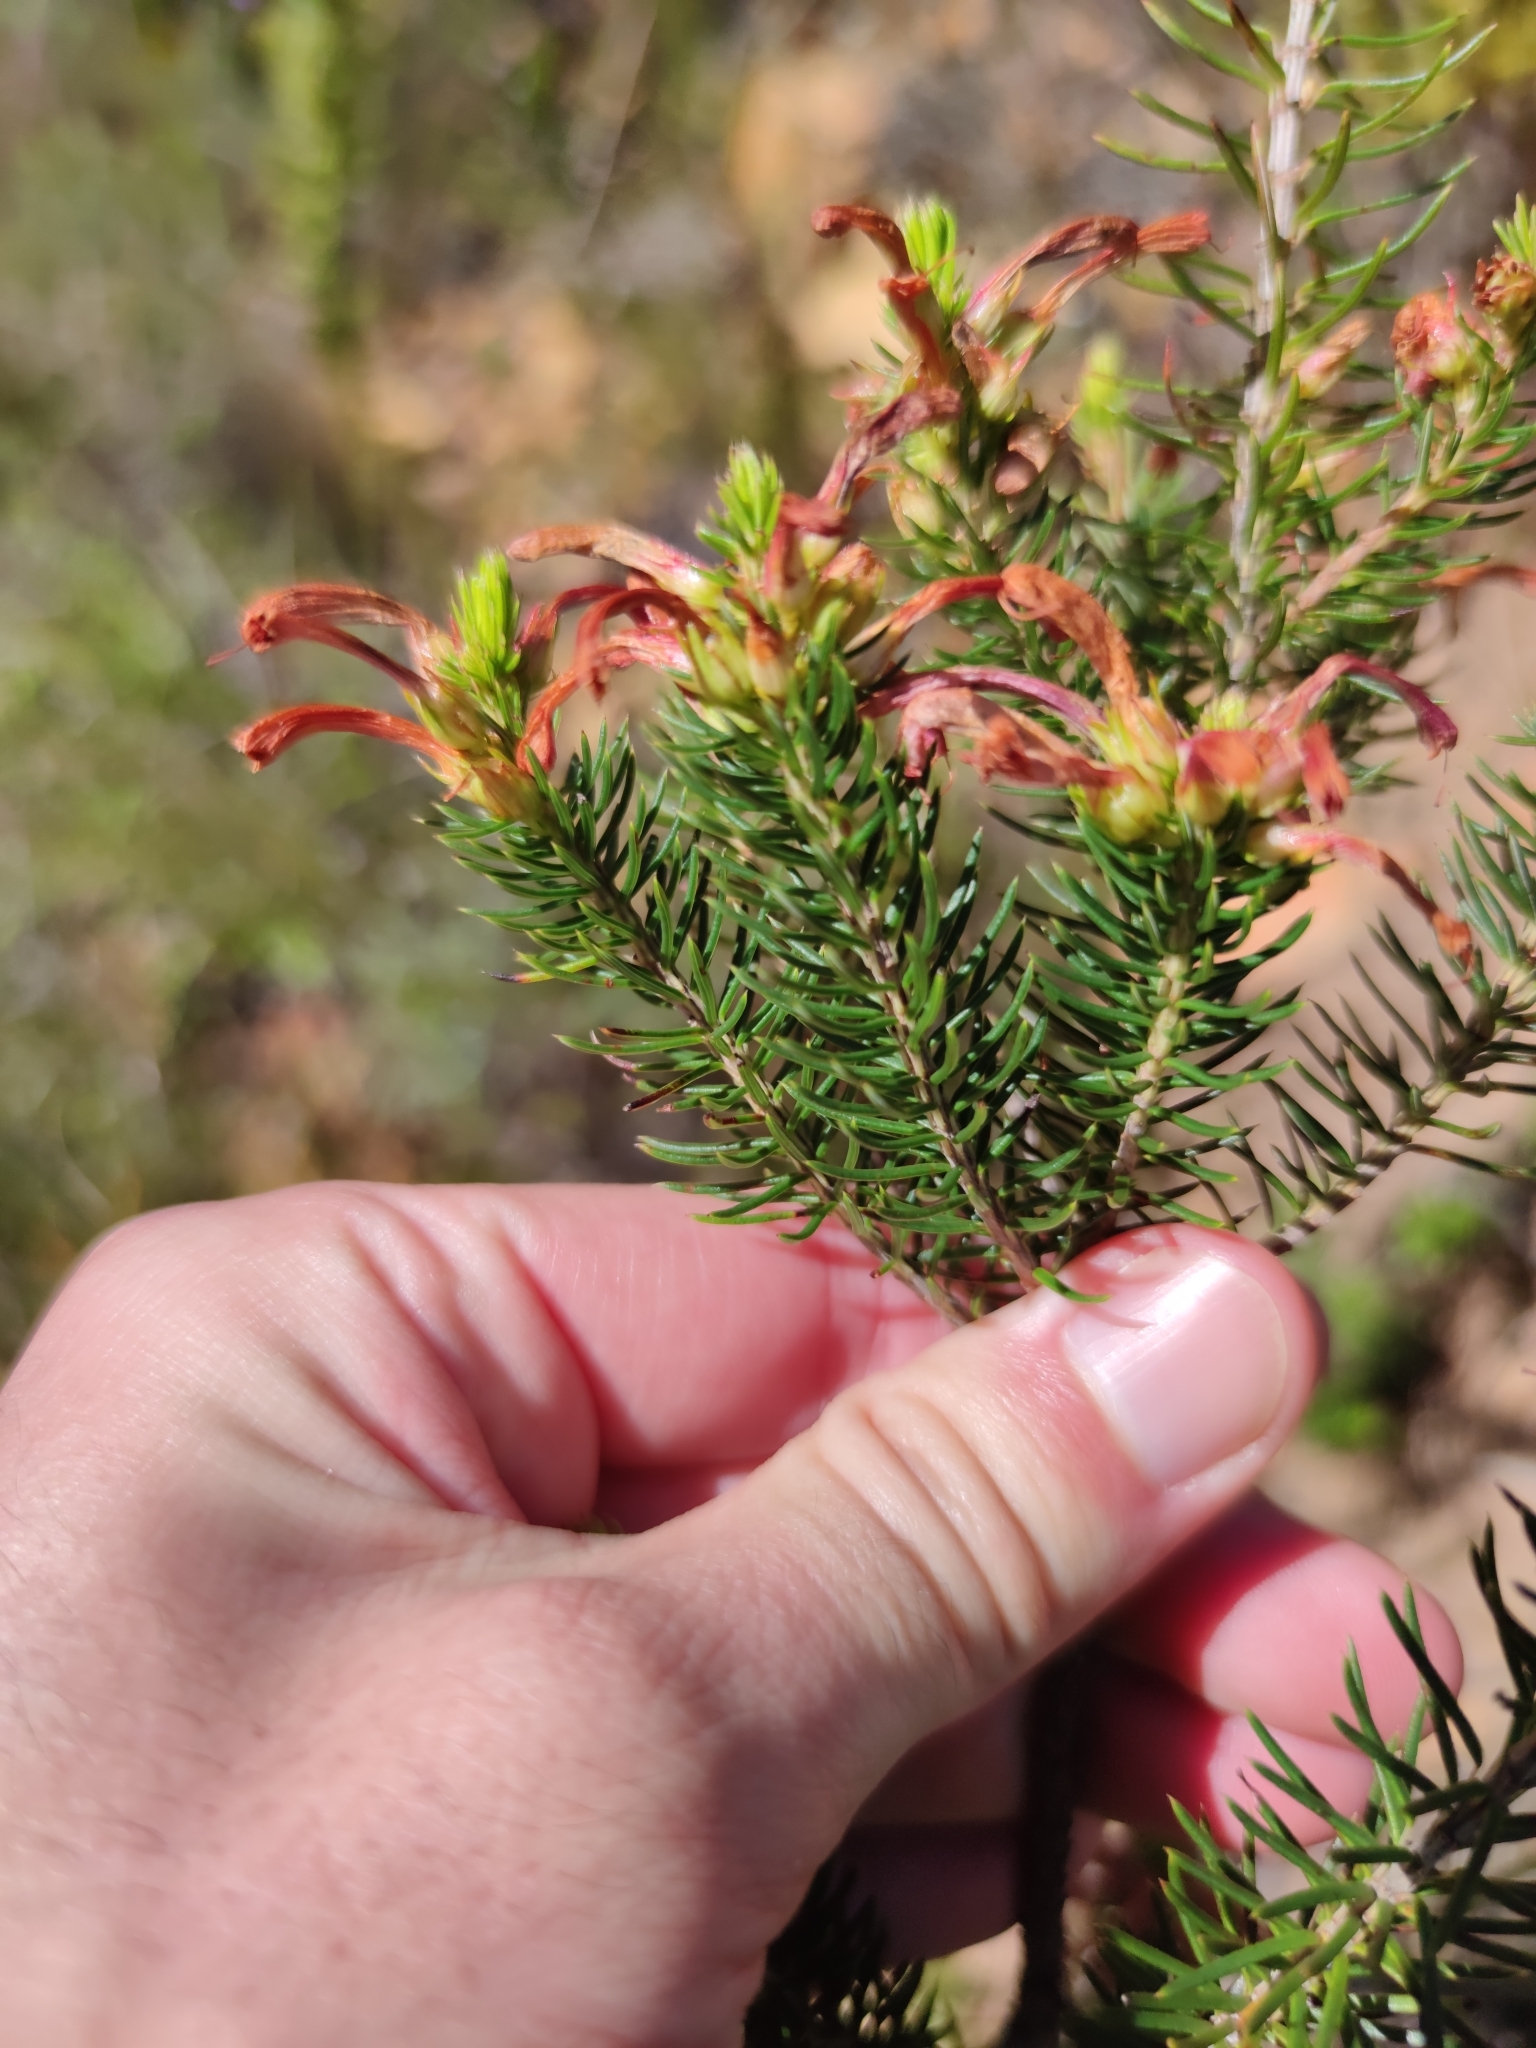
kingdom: Plantae
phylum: Tracheophyta
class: Magnoliopsida
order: Ericales
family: Ericaceae
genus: Erica
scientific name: Erica abietina
